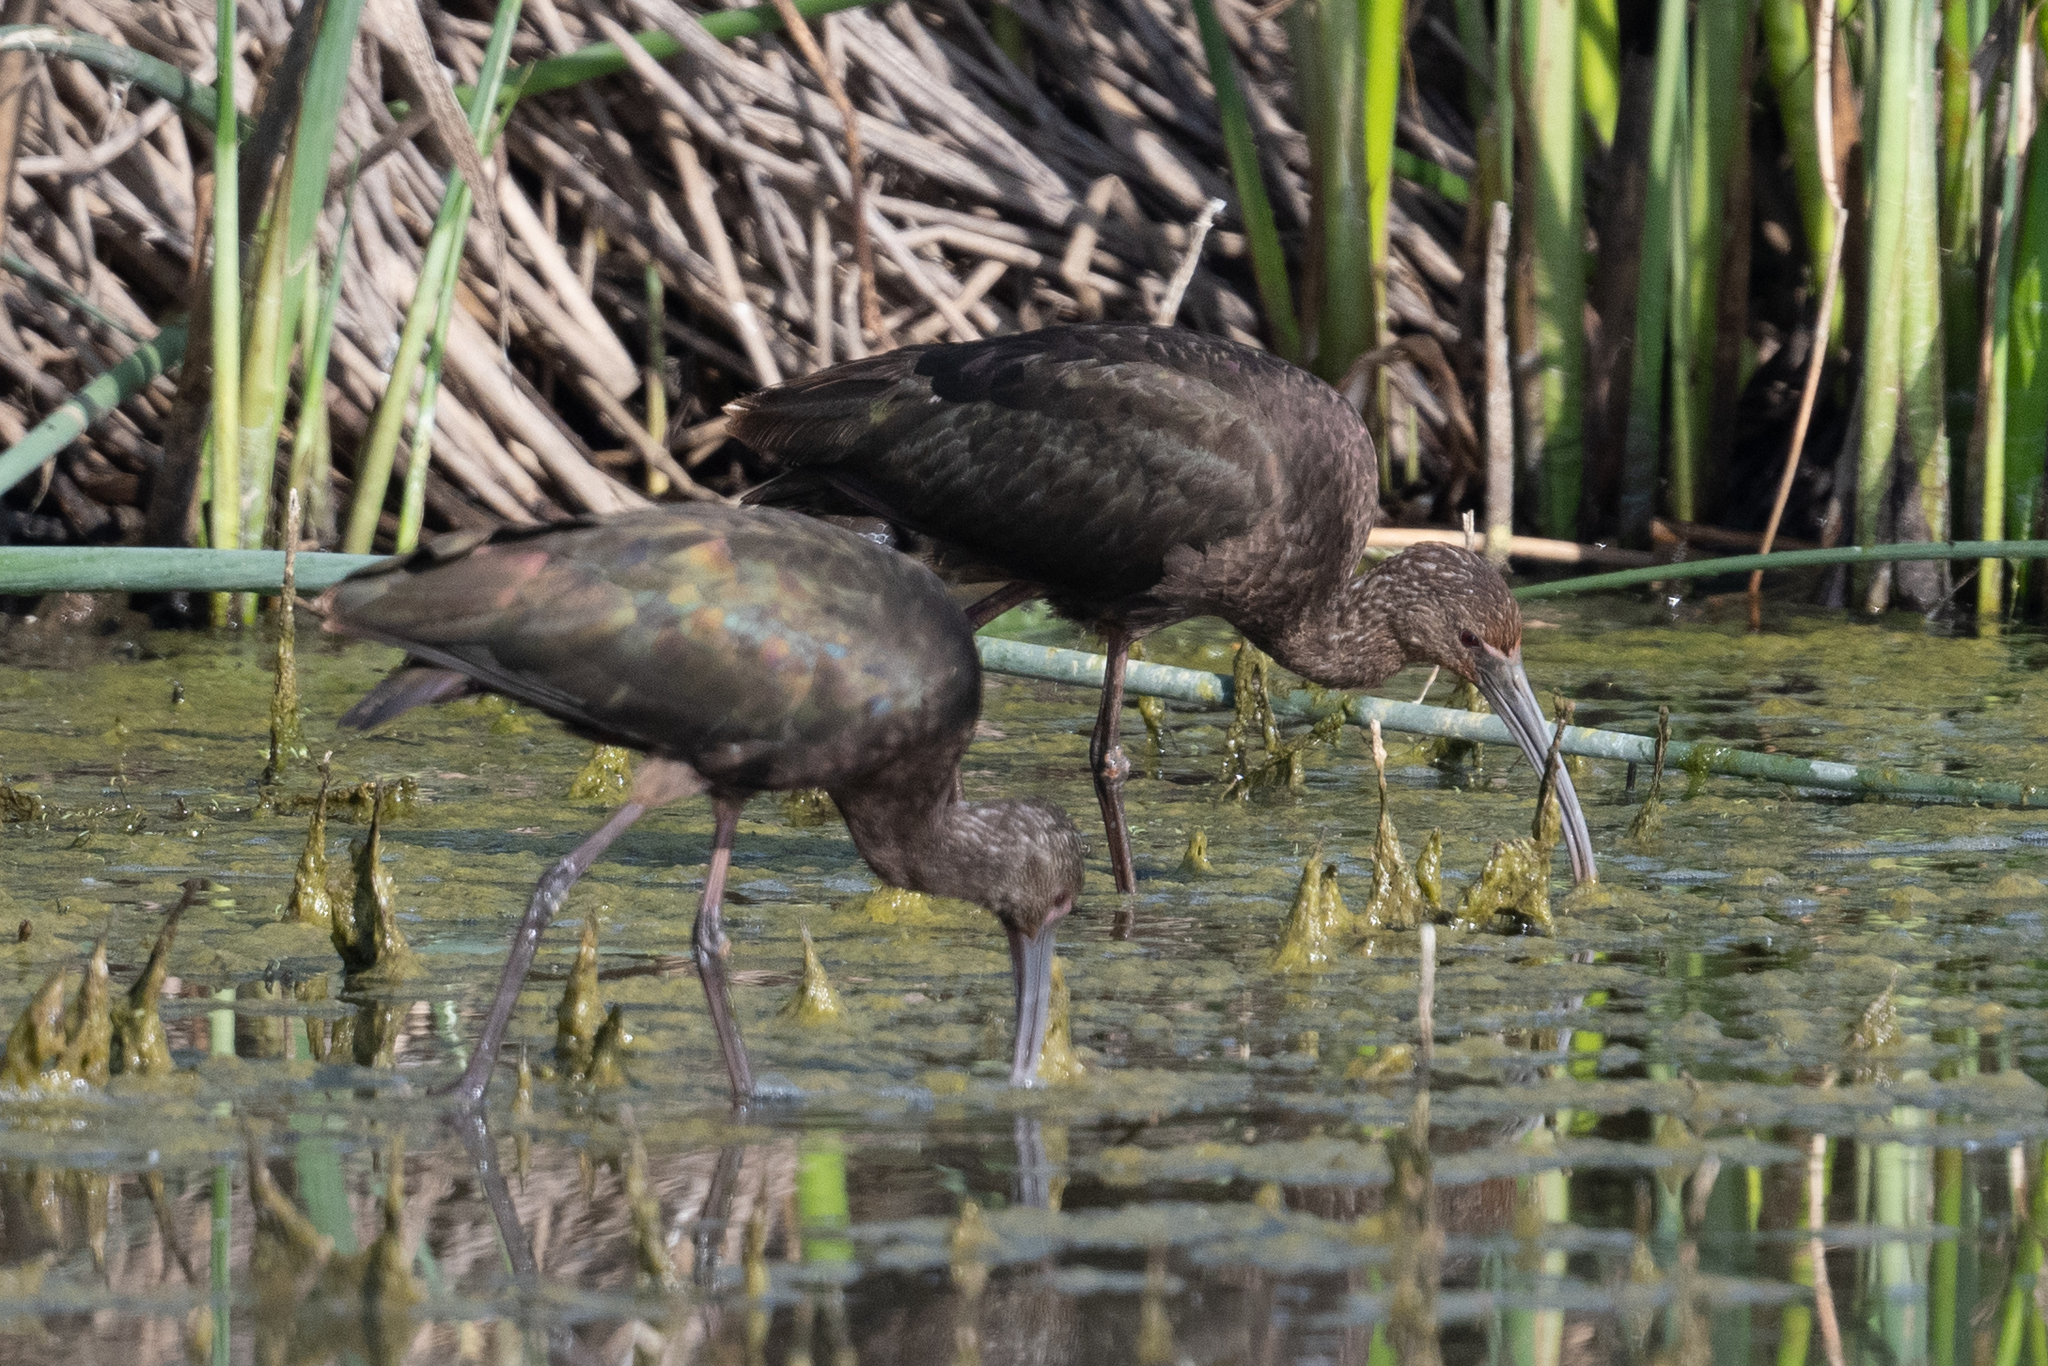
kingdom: Animalia
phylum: Chordata
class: Aves
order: Pelecaniformes
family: Threskiornithidae
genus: Plegadis
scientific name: Plegadis chihi
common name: White-faced ibis
